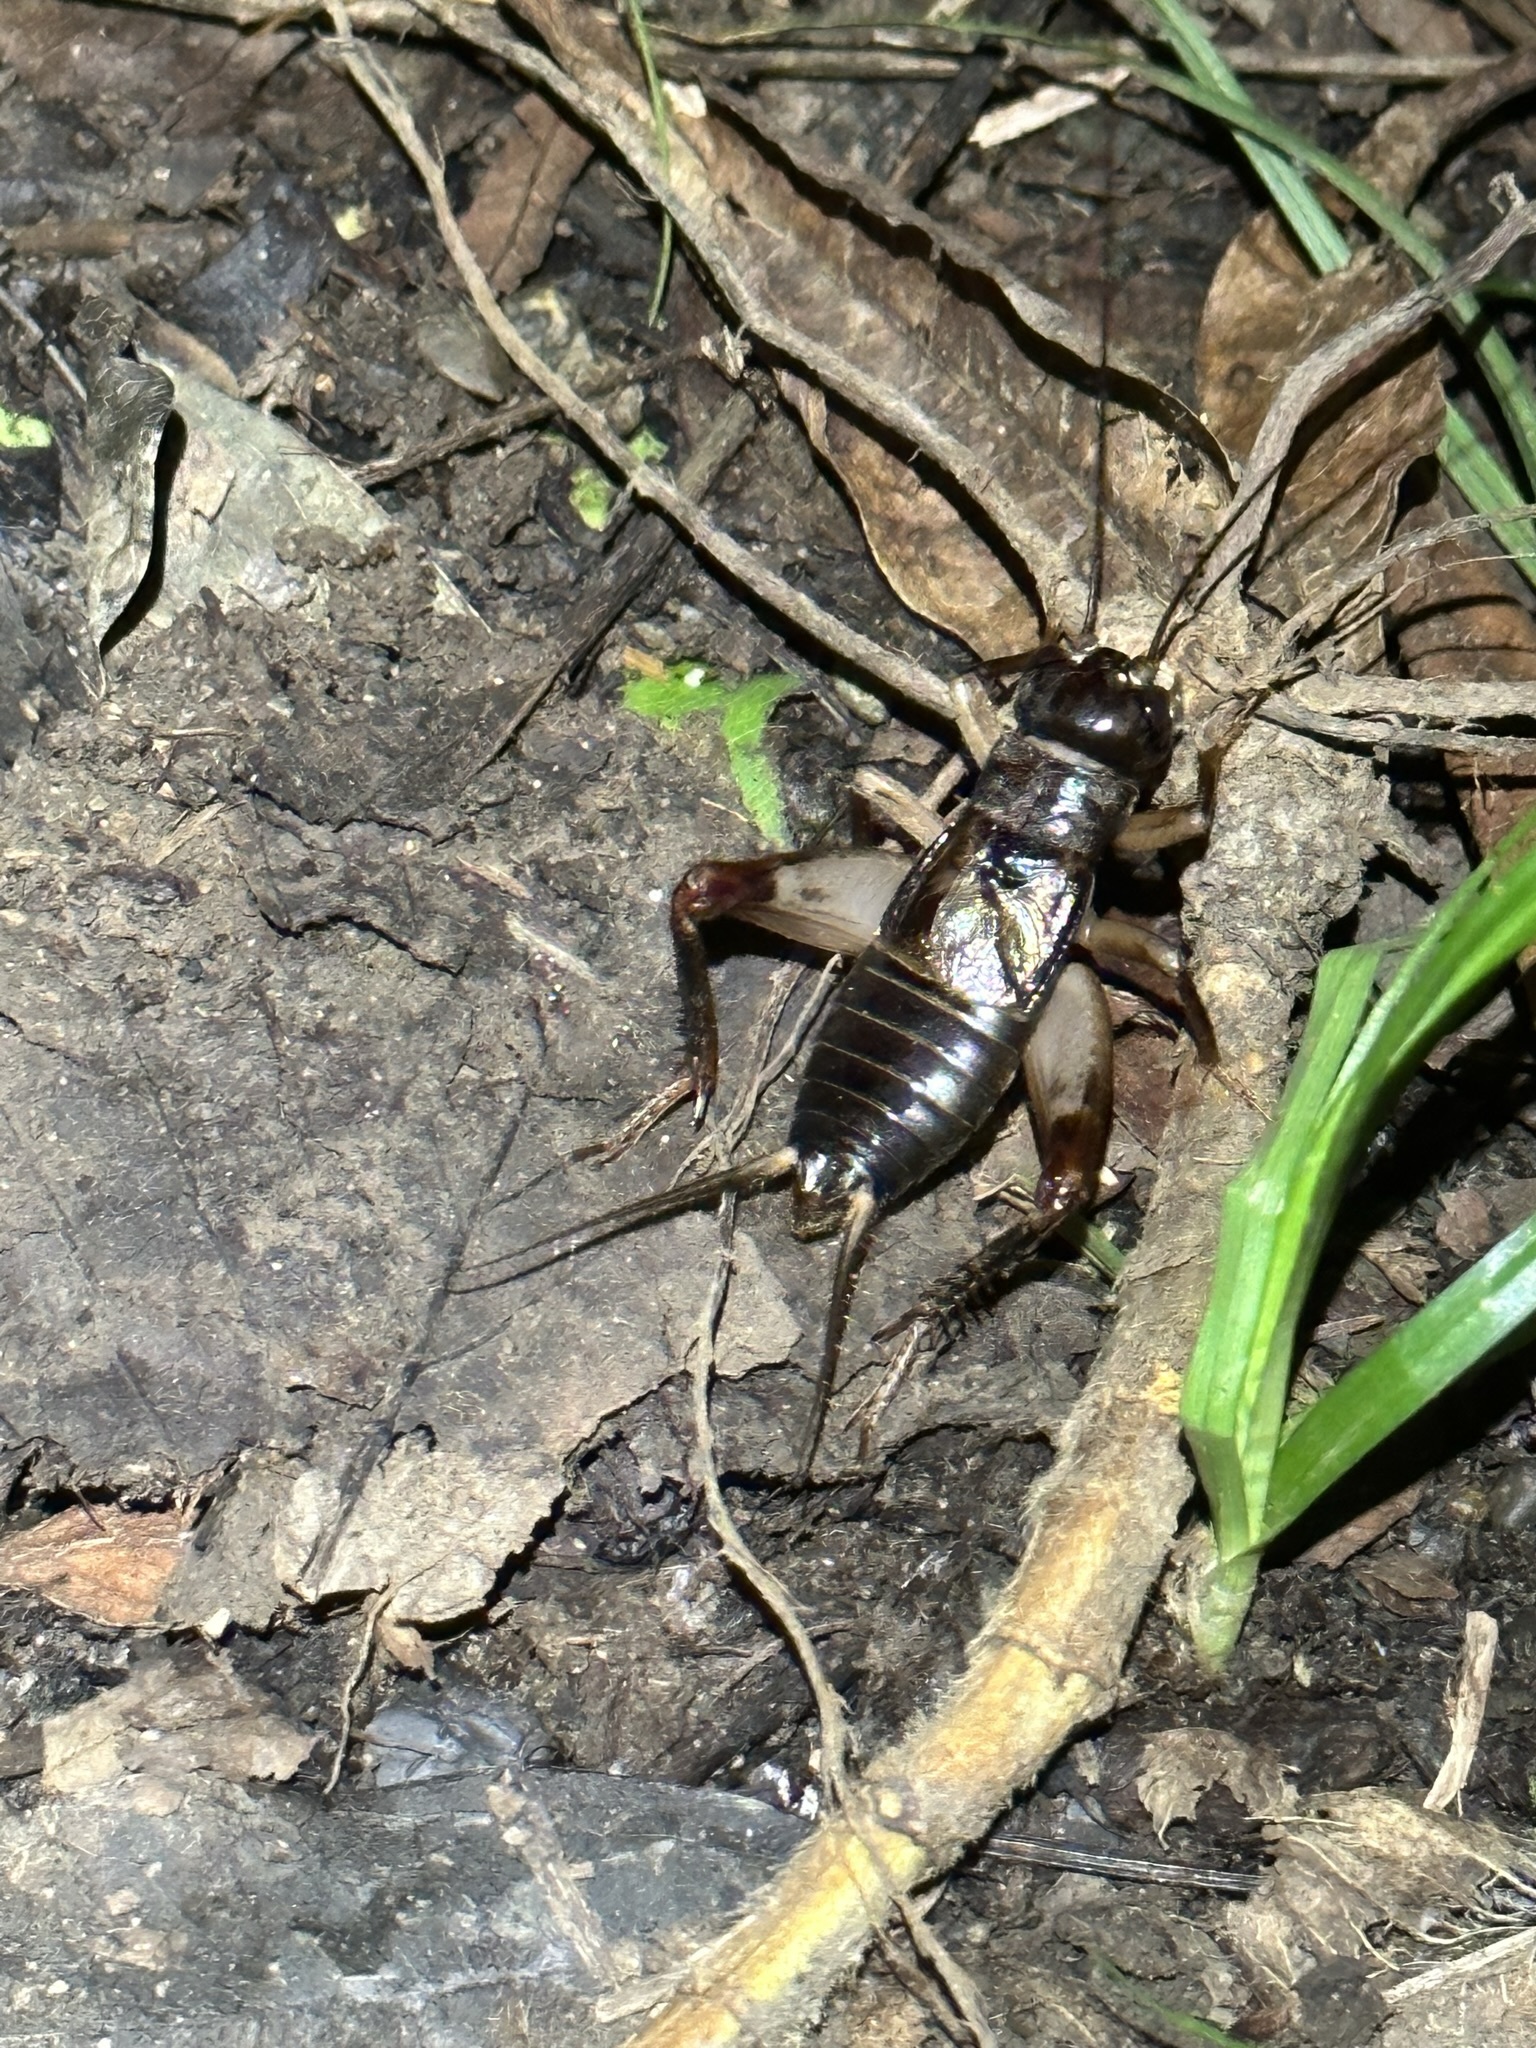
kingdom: Animalia
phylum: Arthropoda
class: Insecta
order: Orthoptera
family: Gryllidae
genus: Duolandrevus
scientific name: Duolandrevus ivani
